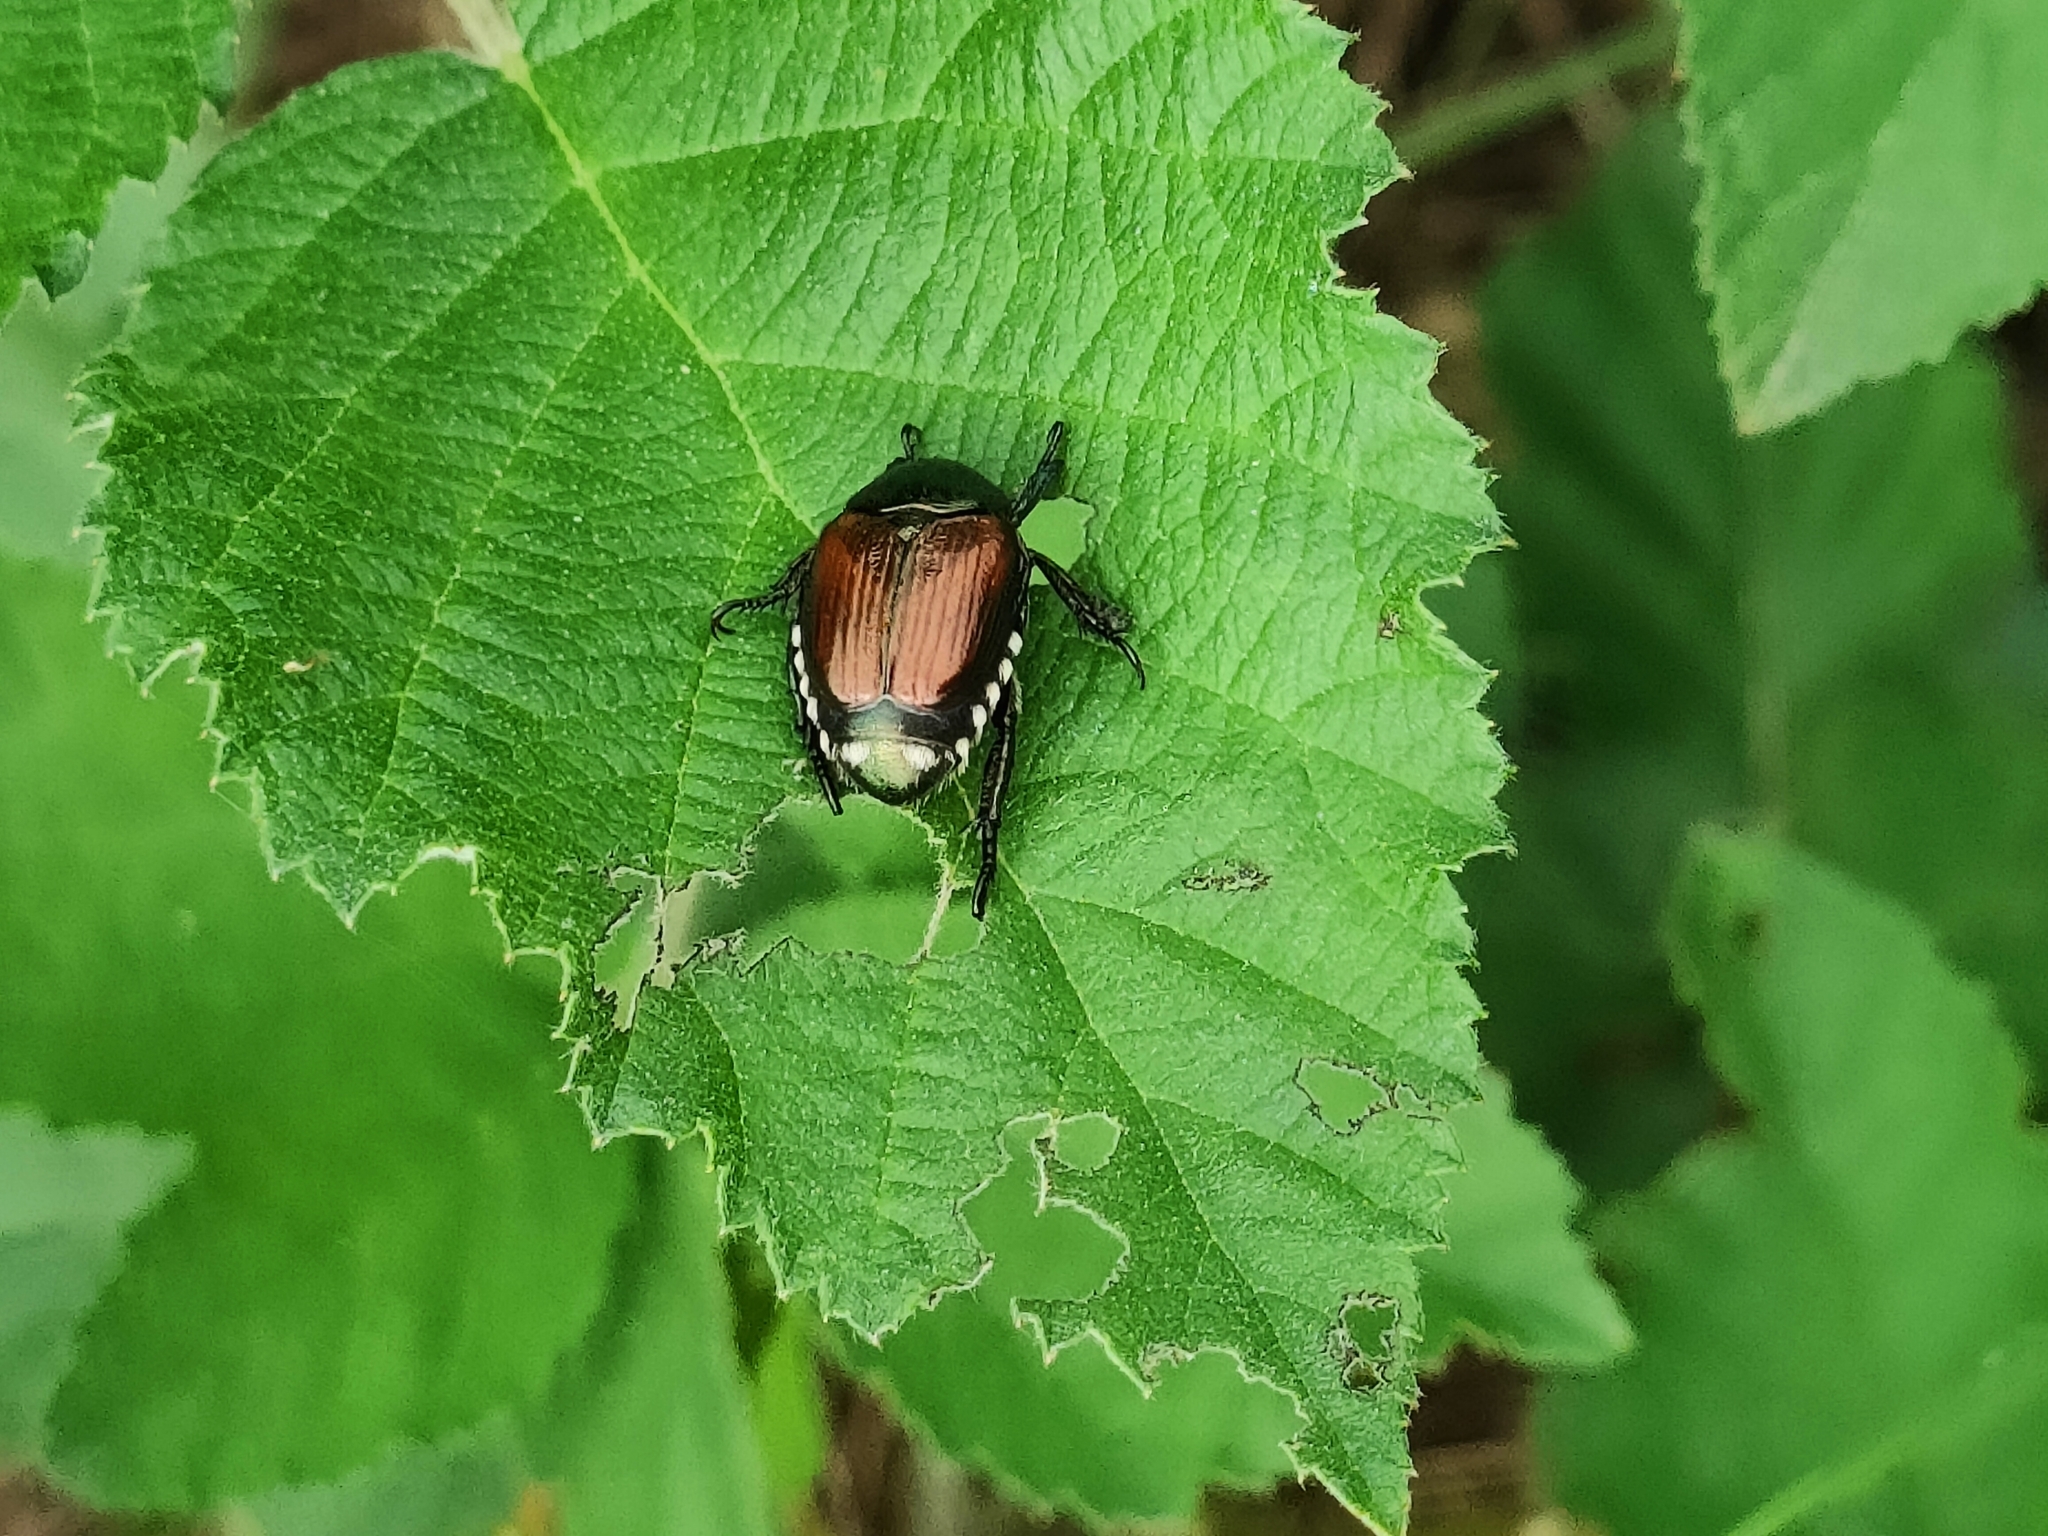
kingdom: Animalia
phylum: Arthropoda
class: Insecta
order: Coleoptera
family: Scarabaeidae
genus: Popillia
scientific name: Popillia japonica
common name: Japanese beetle
